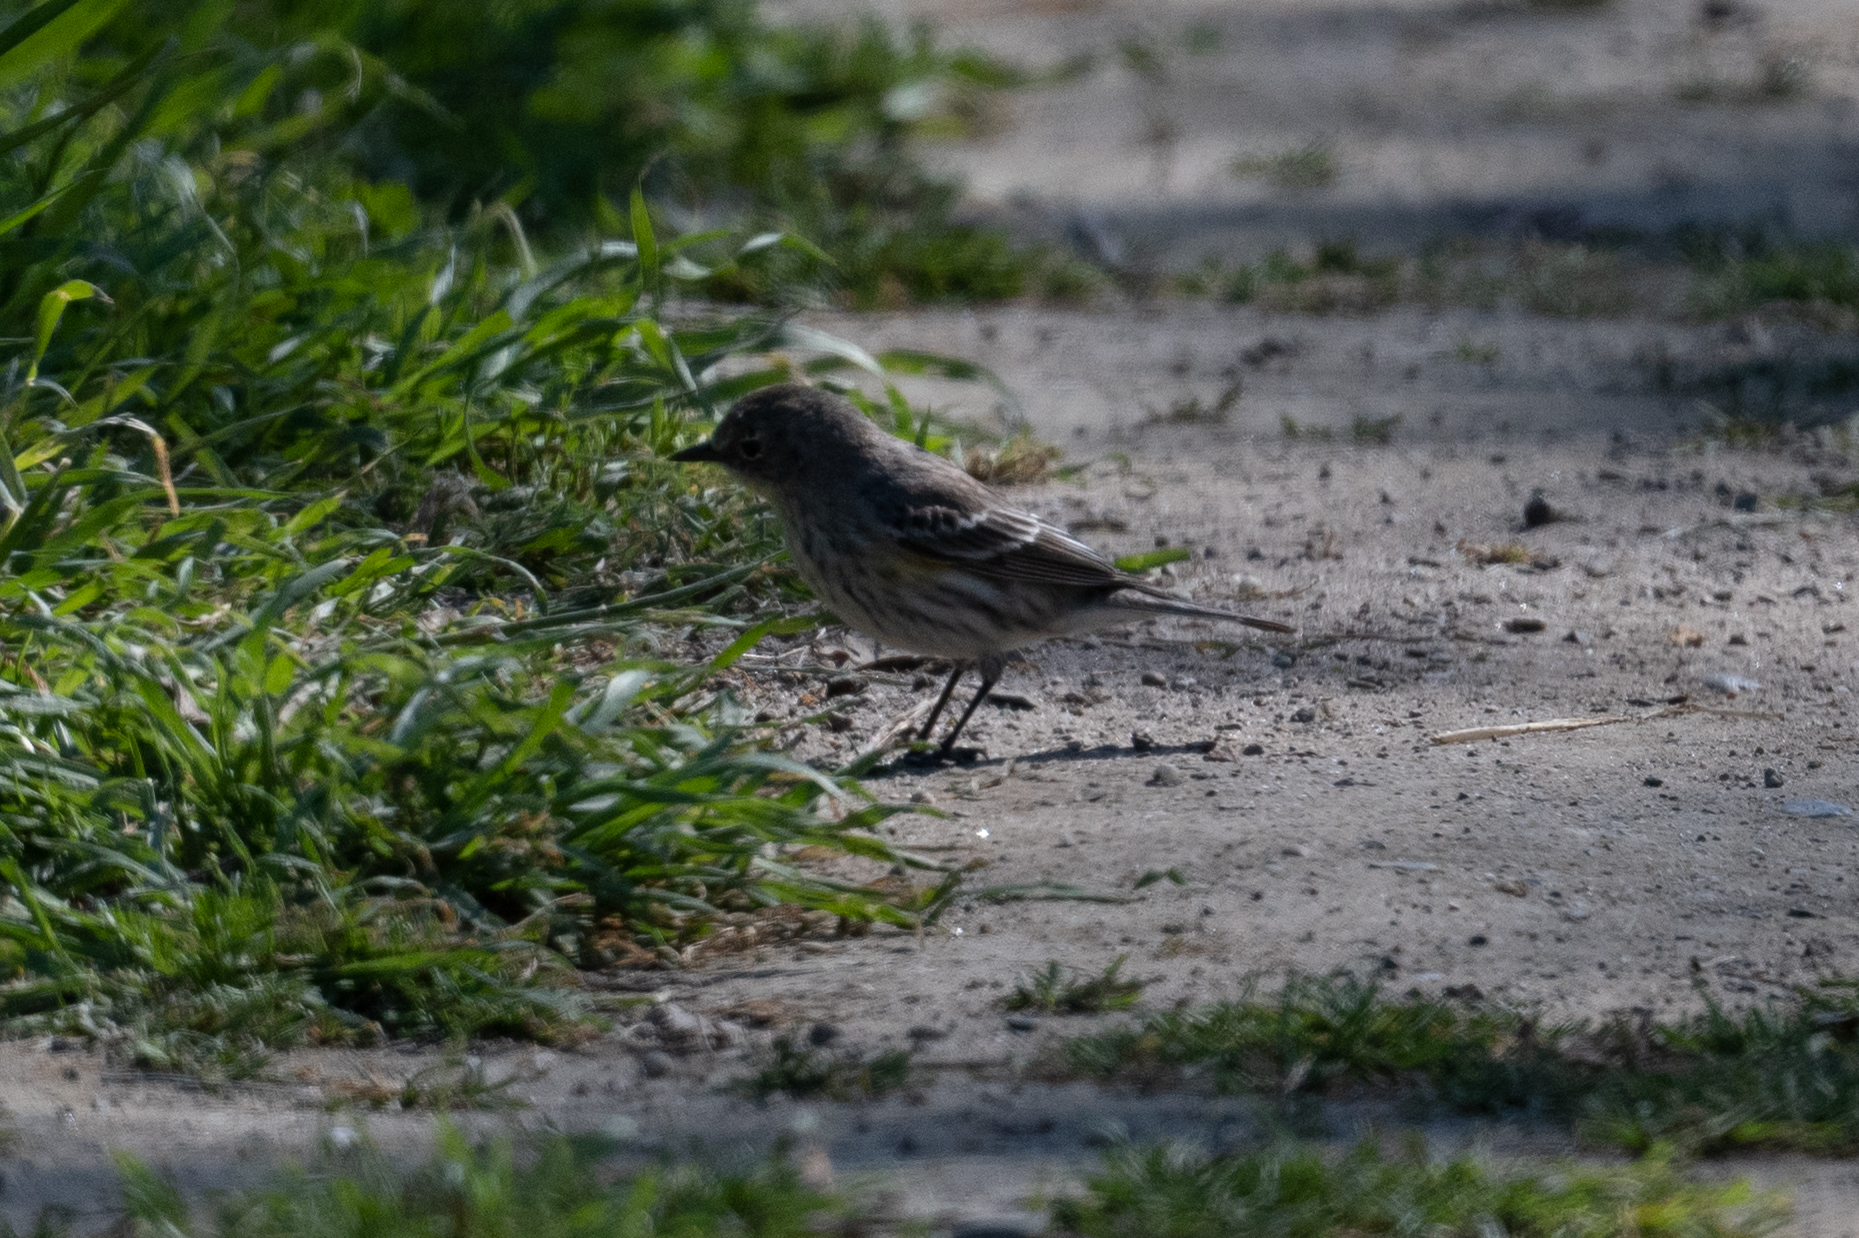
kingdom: Animalia
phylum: Chordata
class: Aves
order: Passeriformes
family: Parulidae
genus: Setophaga
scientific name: Setophaga coronata
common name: Myrtle warbler
